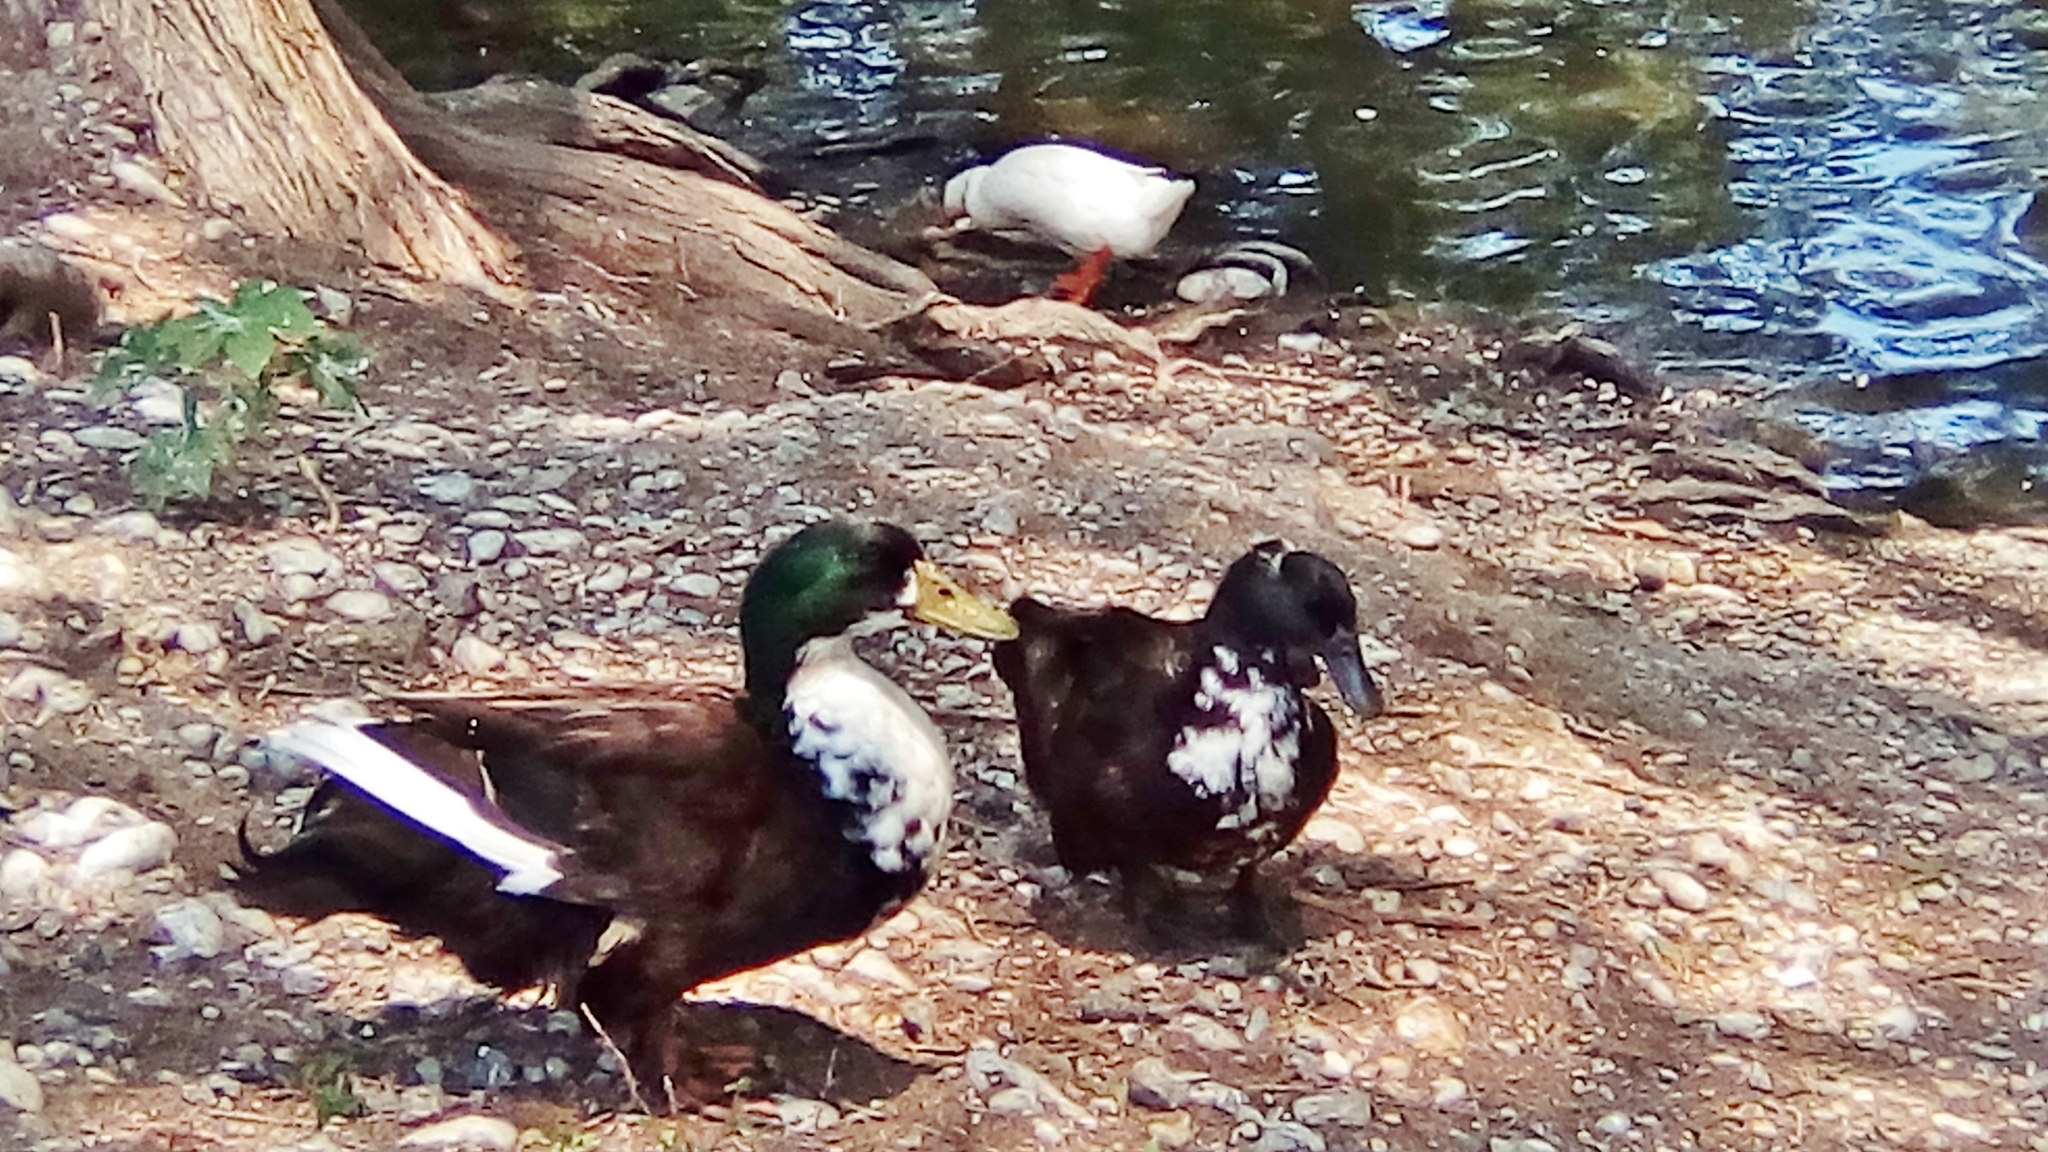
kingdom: Animalia
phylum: Chordata
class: Aves
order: Anseriformes
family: Anatidae
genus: Anas
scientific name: Anas platyrhynchos
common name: Mallard
